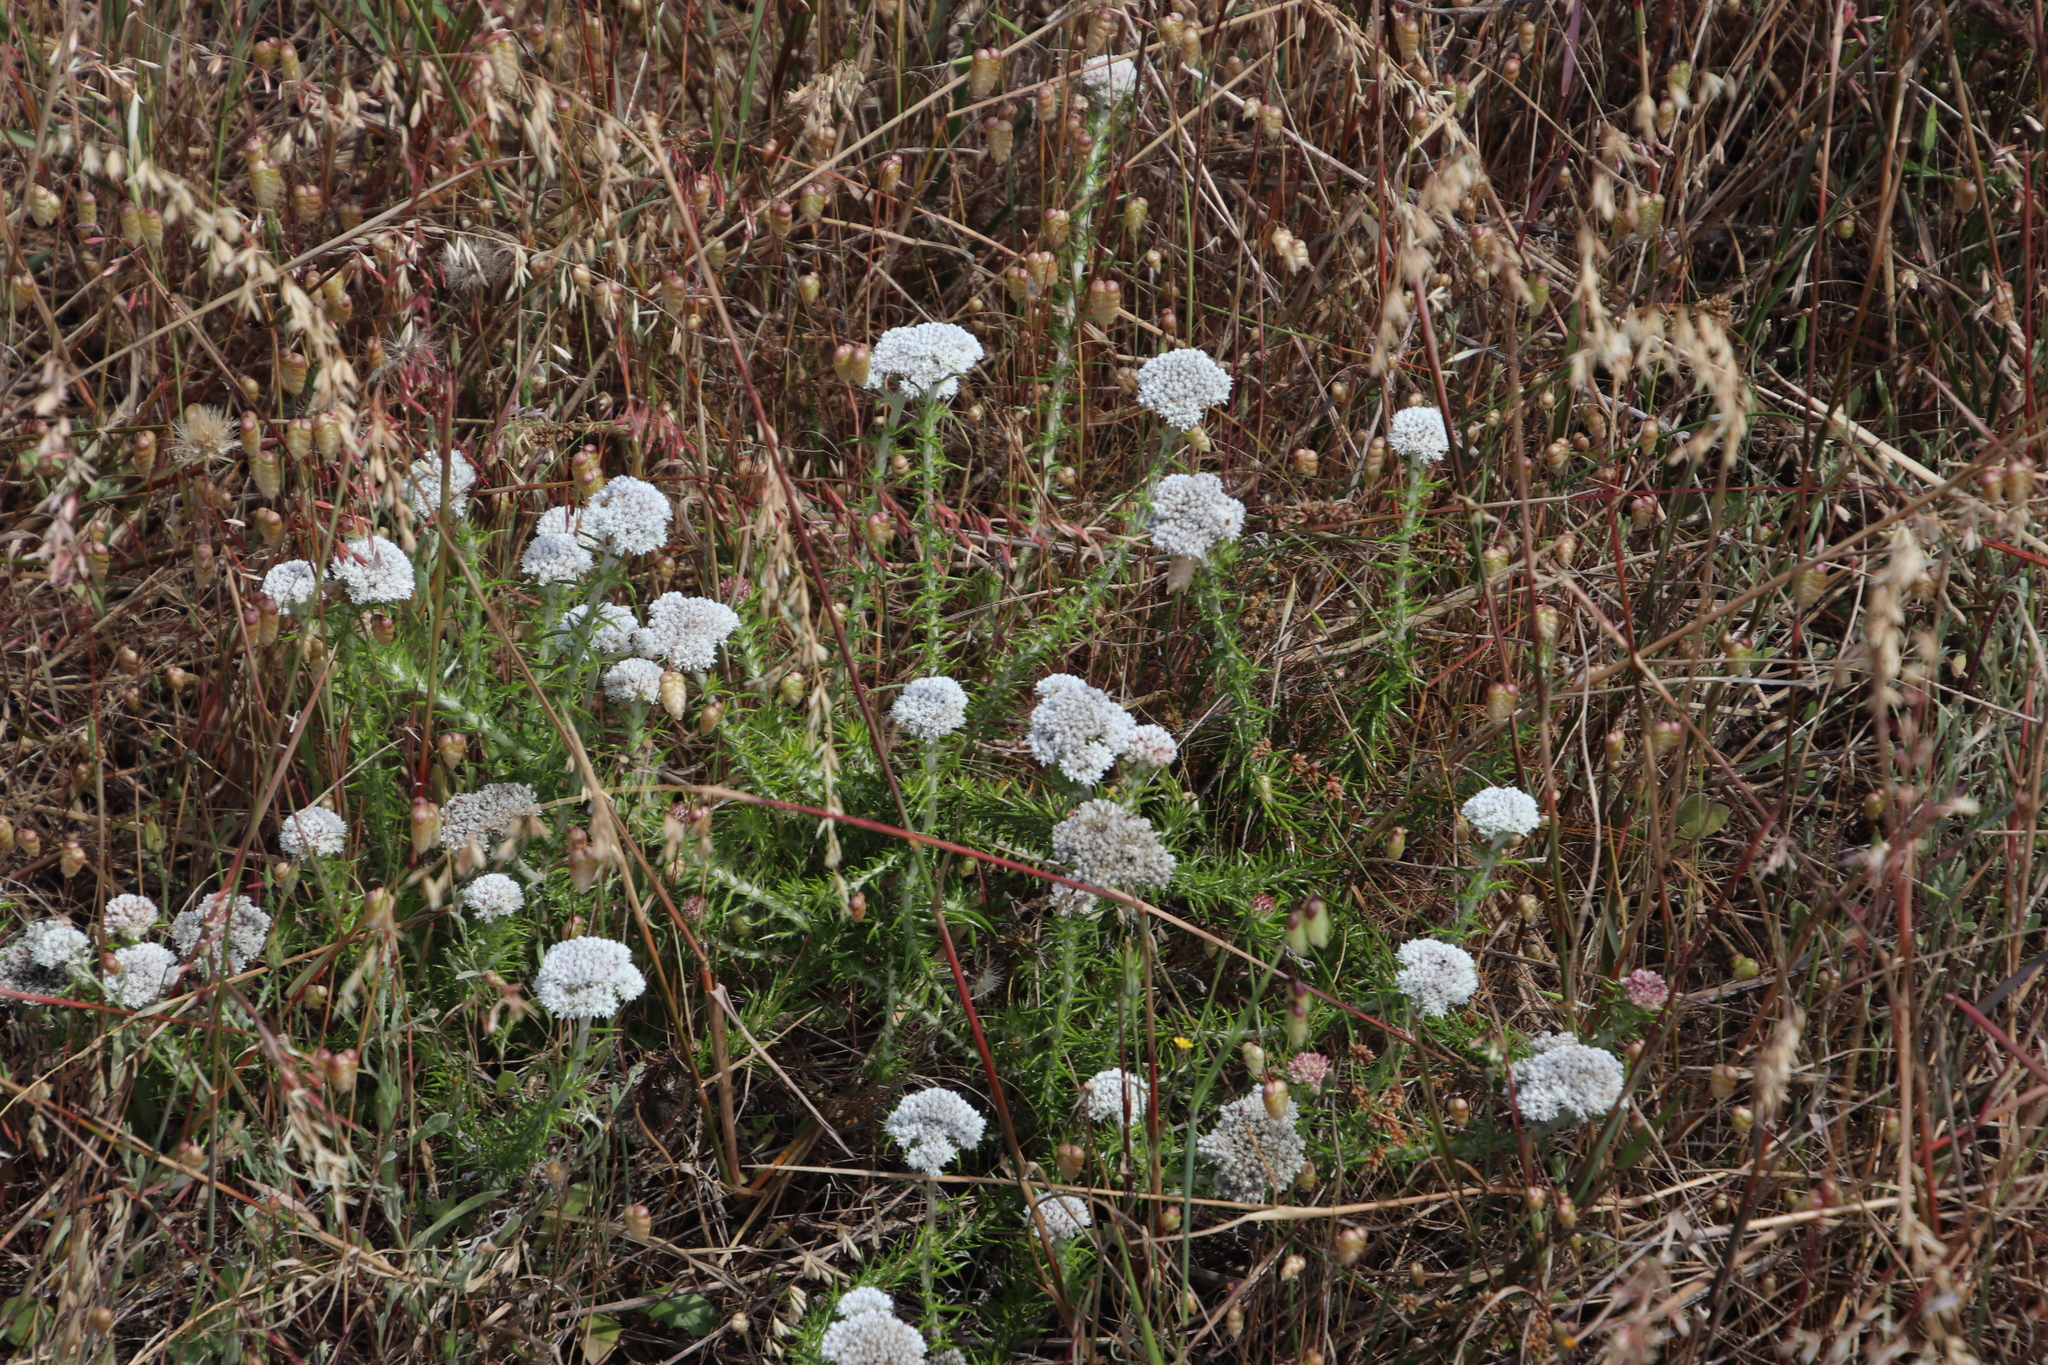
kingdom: Plantae
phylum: Tracheophyta
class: Magnoliopsida
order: Asterales
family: Asteraceae
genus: Metalasia
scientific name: Metalasia pulchella
